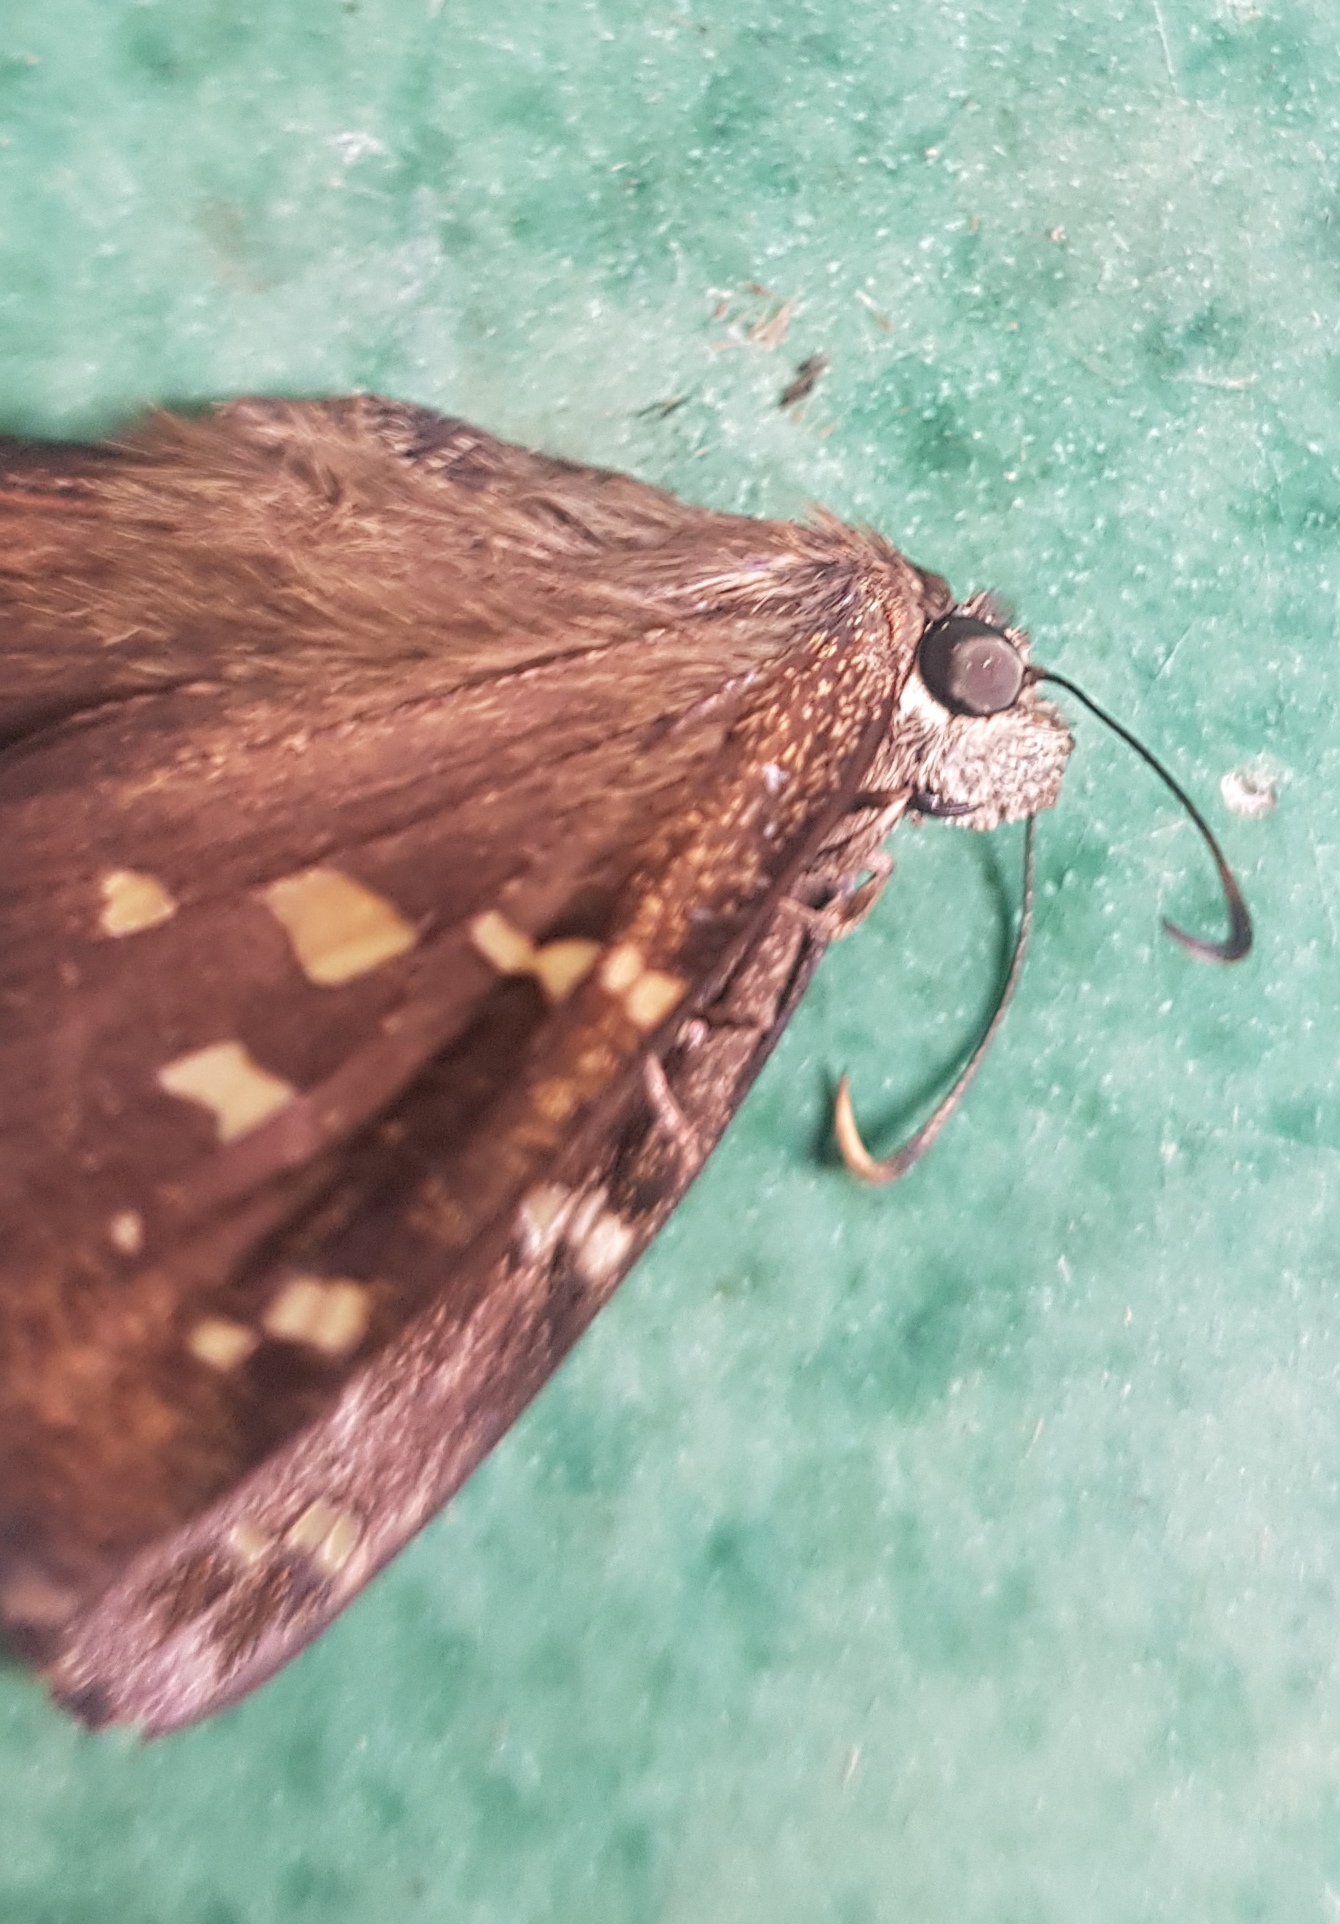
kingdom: Animalia
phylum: Arthropoda
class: Insecta
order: Lepidoptera
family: Hesperiidae
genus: Thorybes
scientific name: Thorybes
